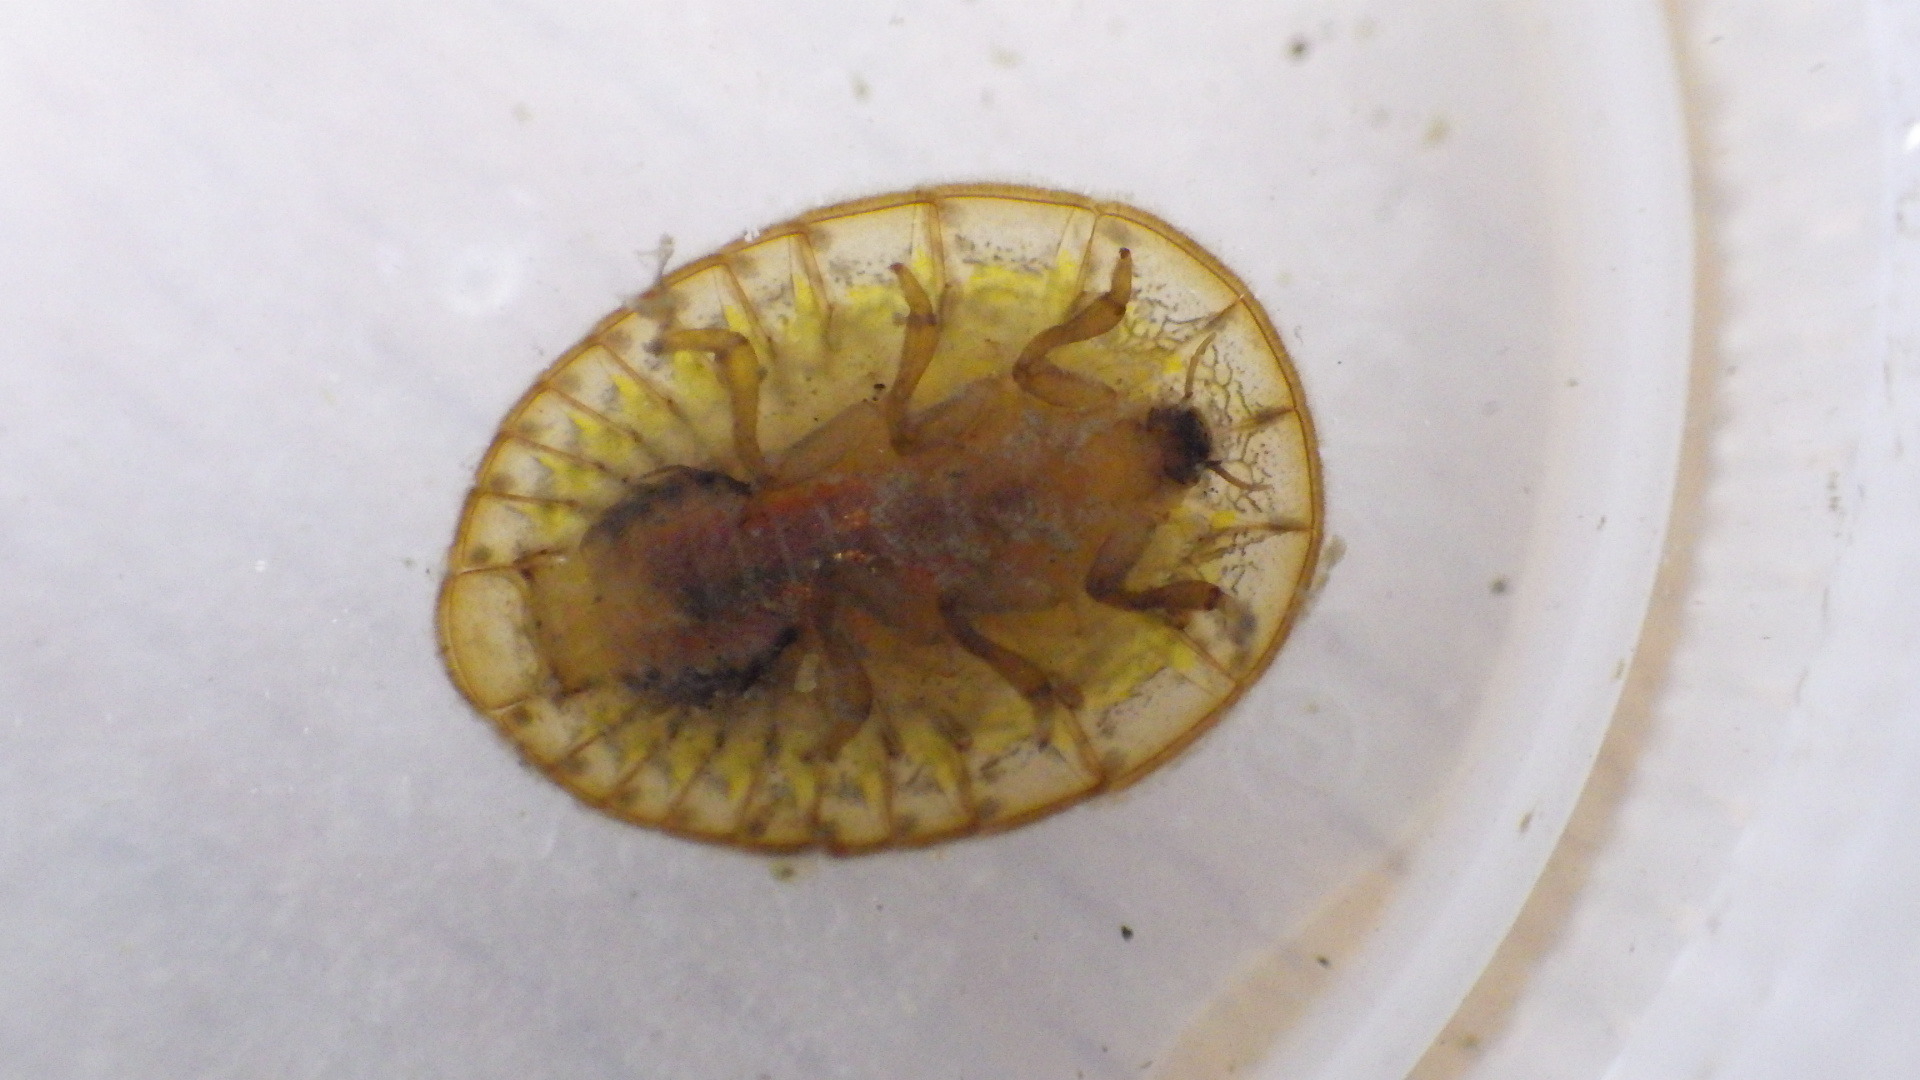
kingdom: Animalia
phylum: Arthropoda
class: Insecta
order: Coleoptera
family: Psephenidae
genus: Psephenus
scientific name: Psephenus herricki
